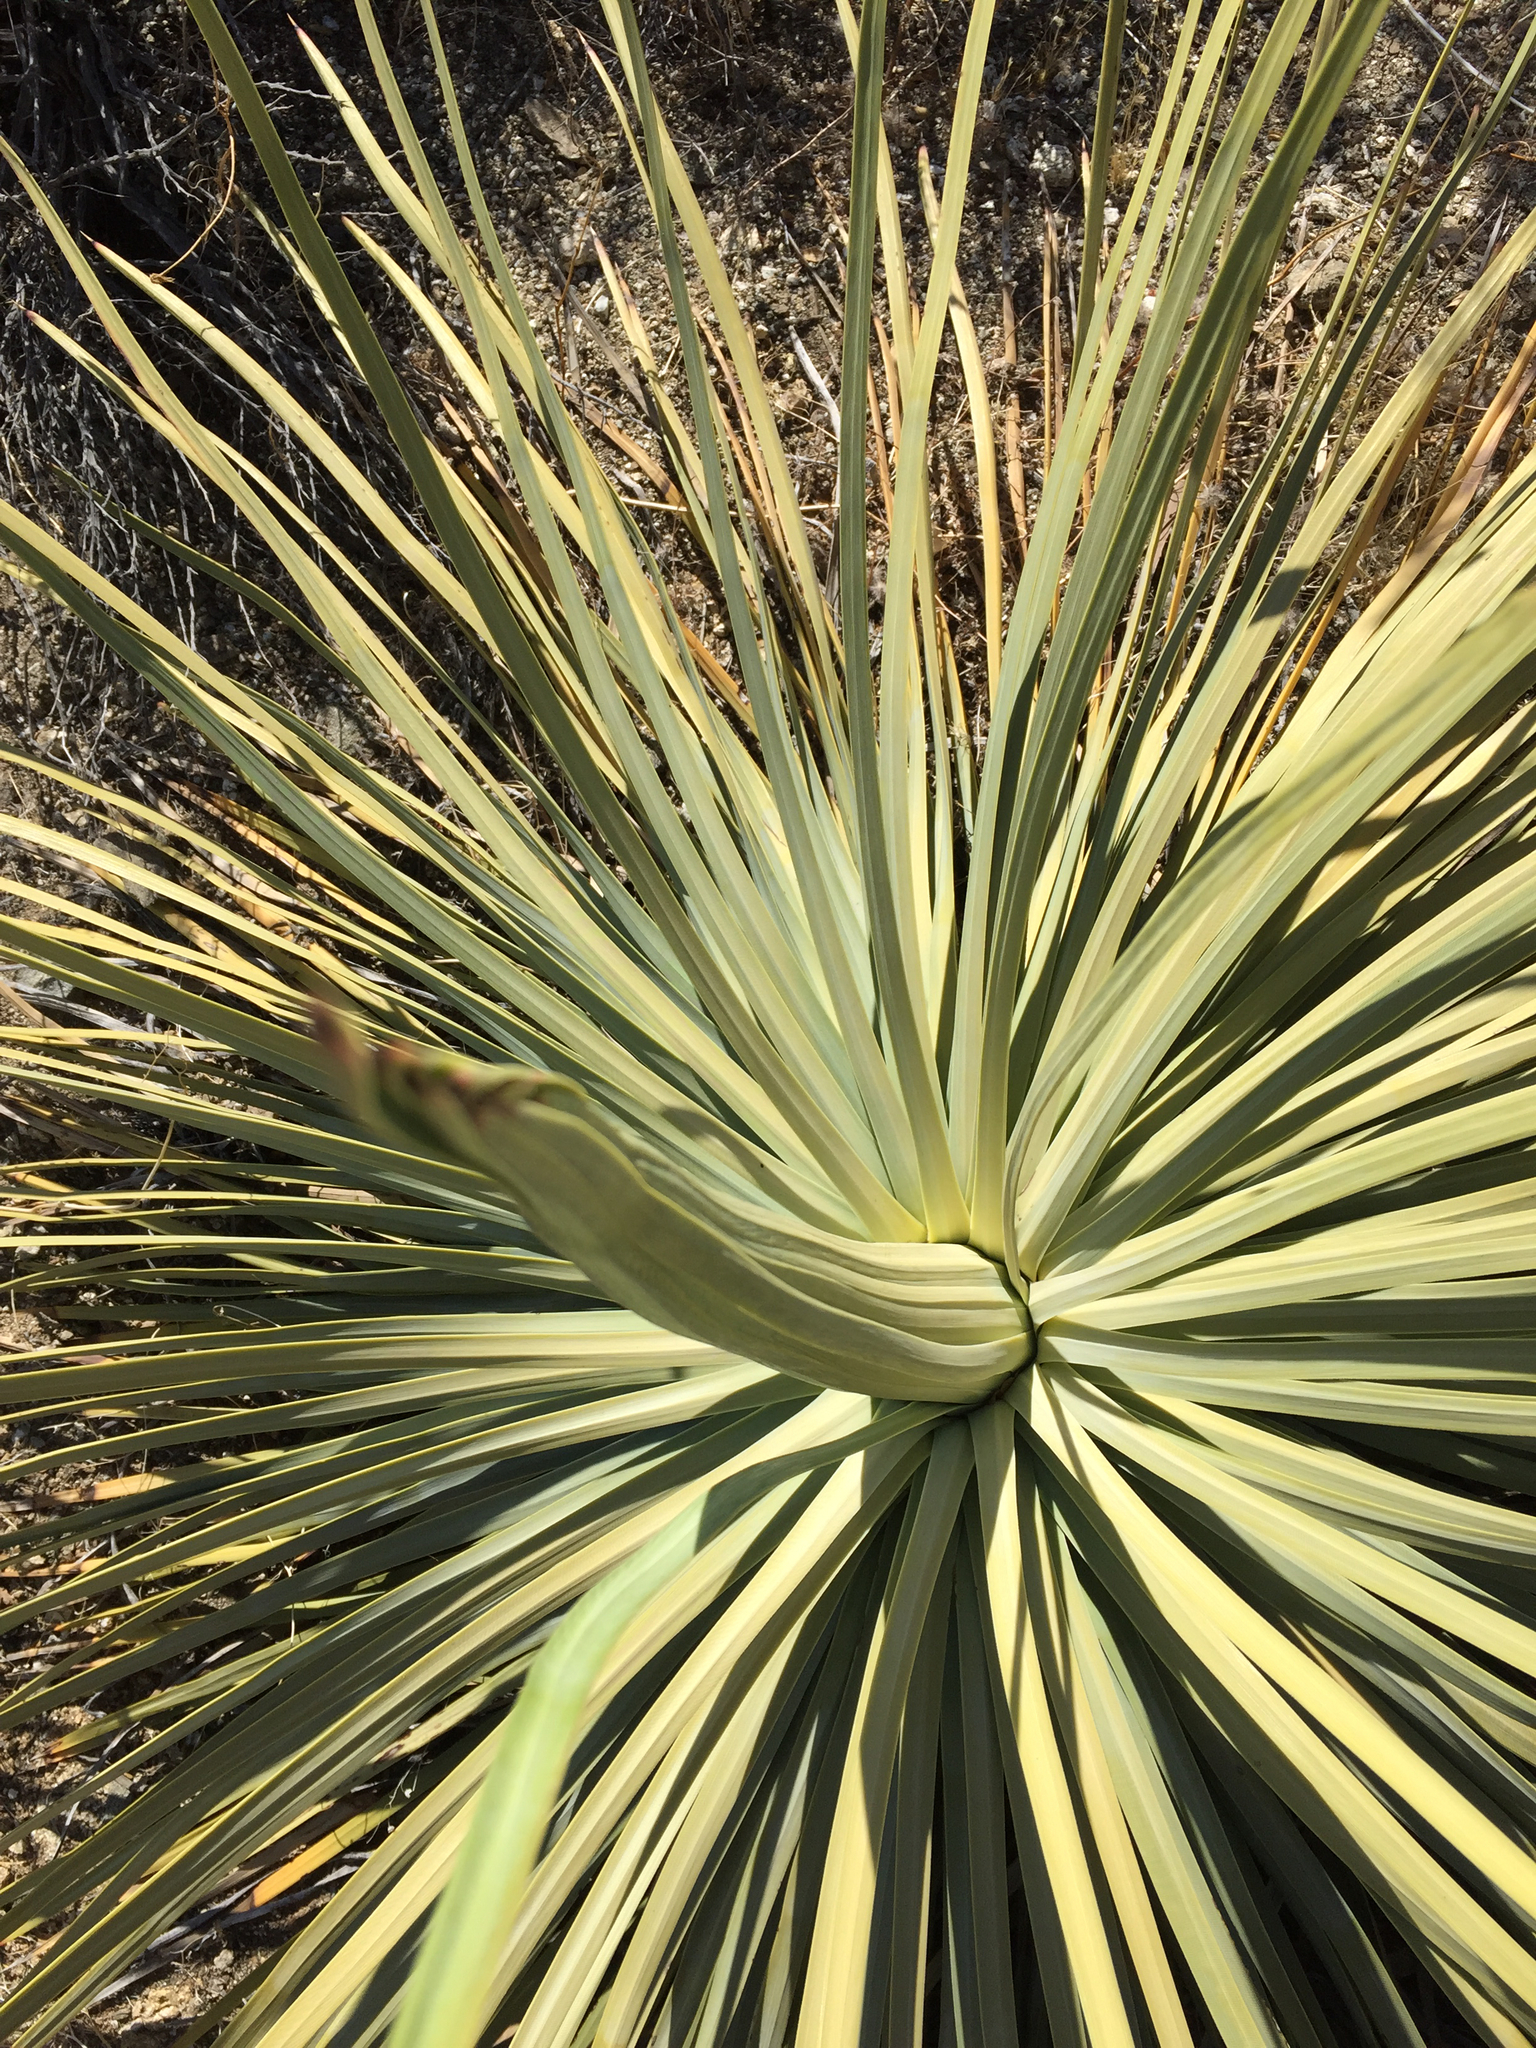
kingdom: Plantae
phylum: Tracheophyta
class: Liliopsida
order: Asparagales
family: Asparagaceae
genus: Hesperoyucca
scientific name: Hesperoyucca whipplei
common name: Our lord's-candle
